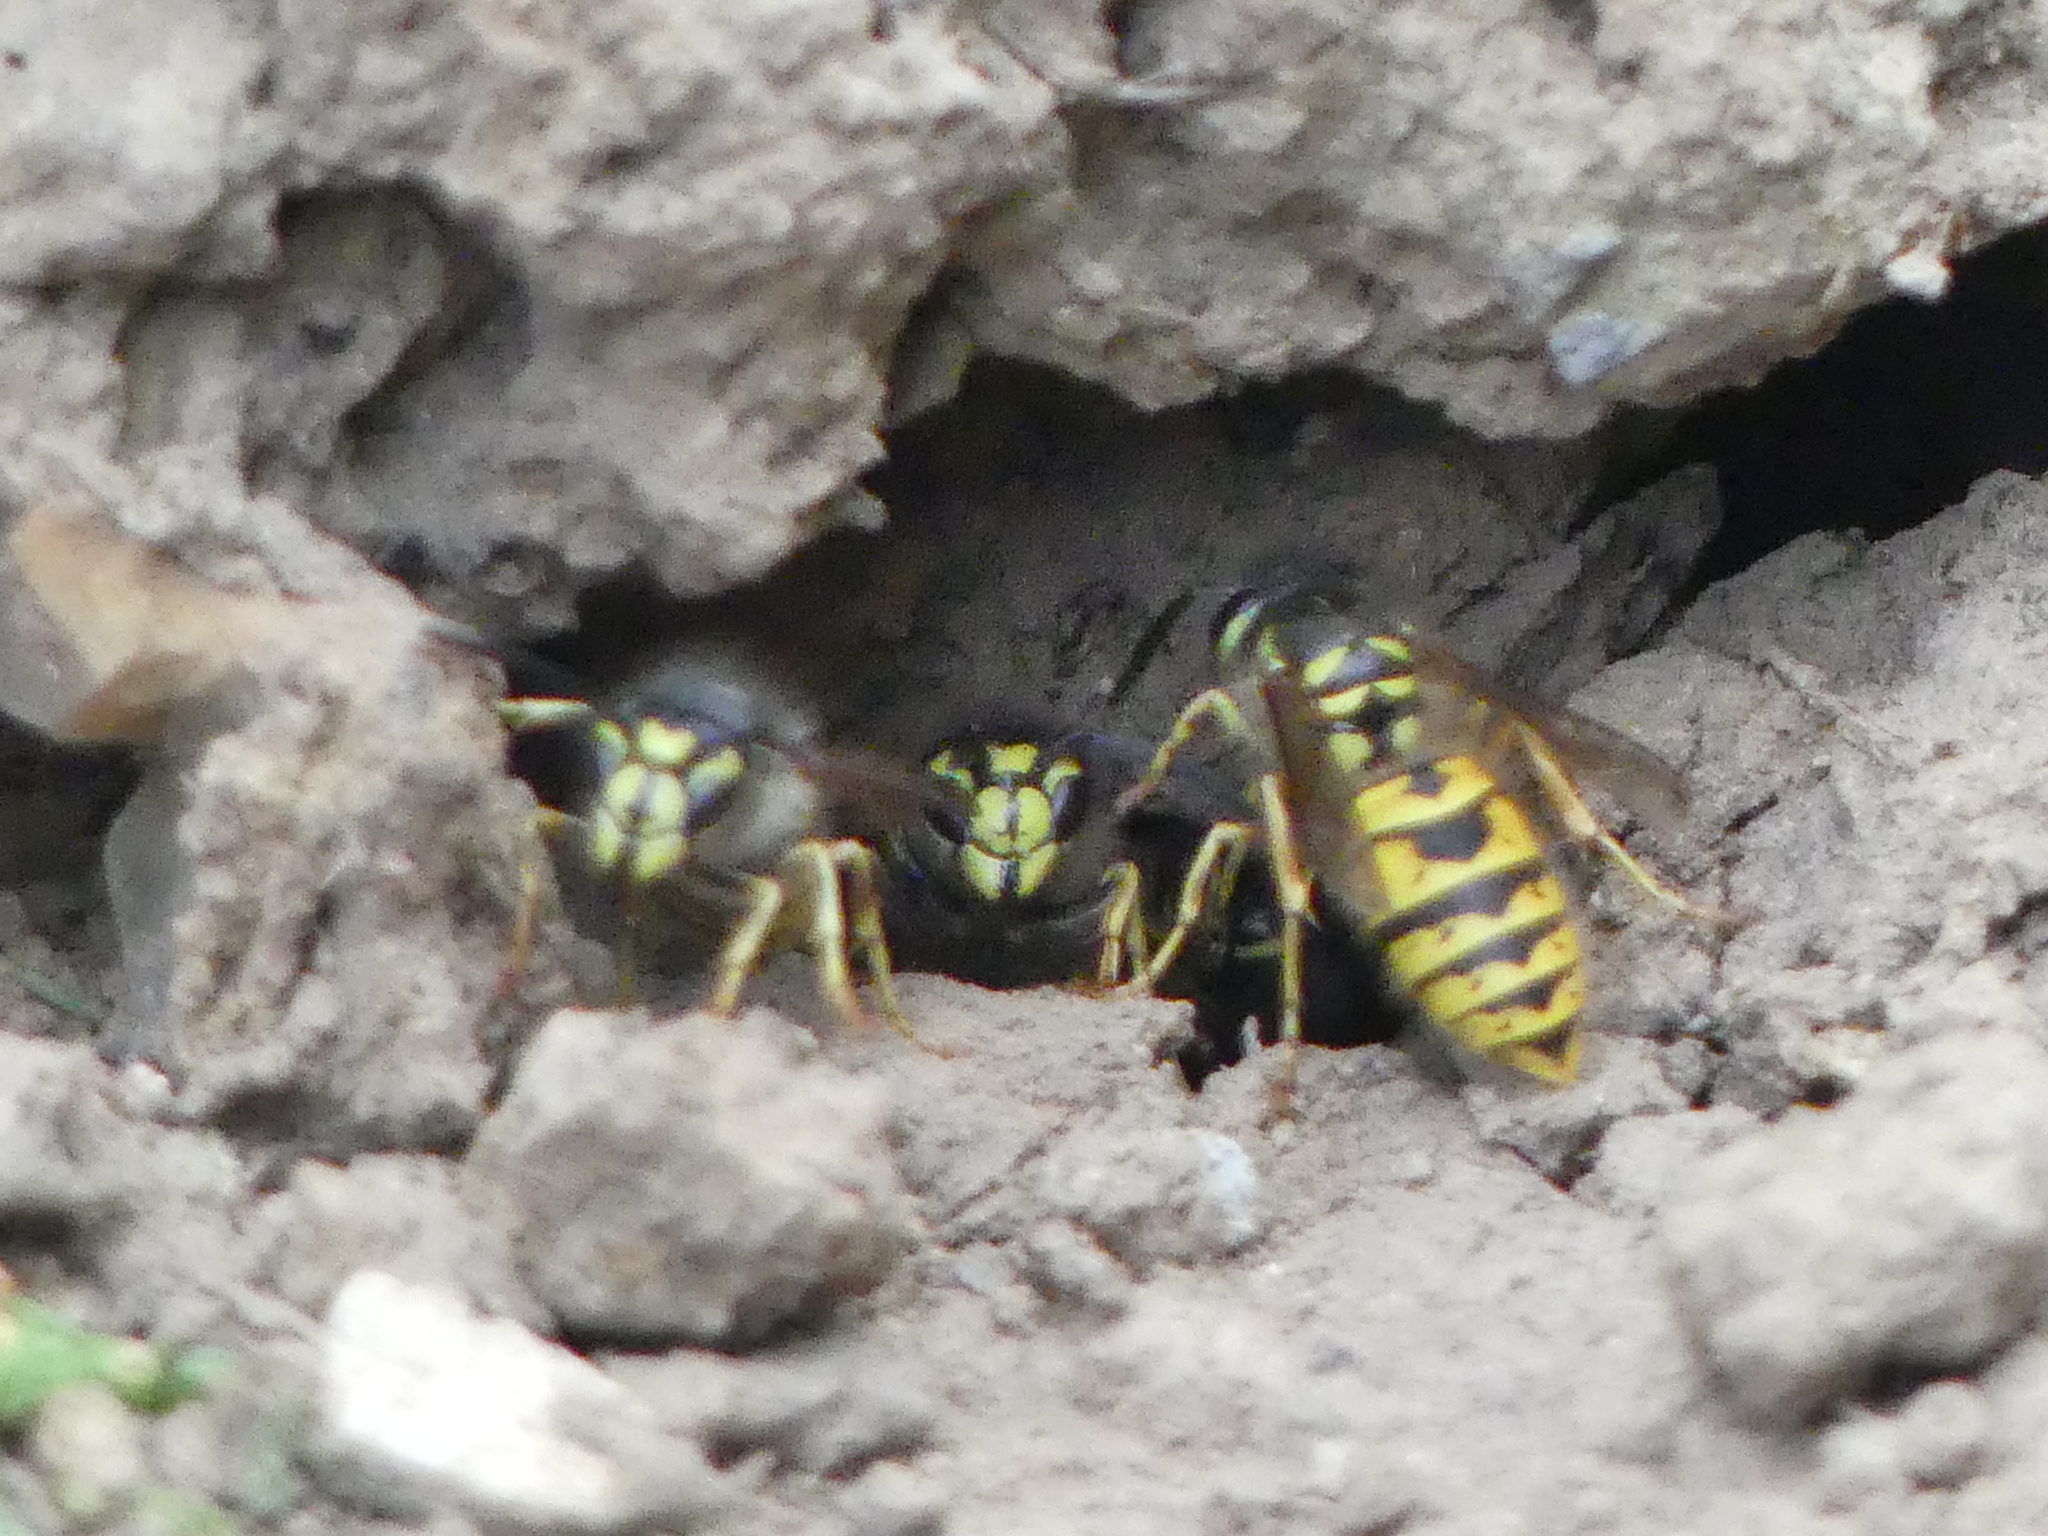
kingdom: Animalia
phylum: Arthropoda
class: Insecta
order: Hymenoptera
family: Vespidae
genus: Vespula
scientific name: Vespula vulgaris
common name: Common wasp
